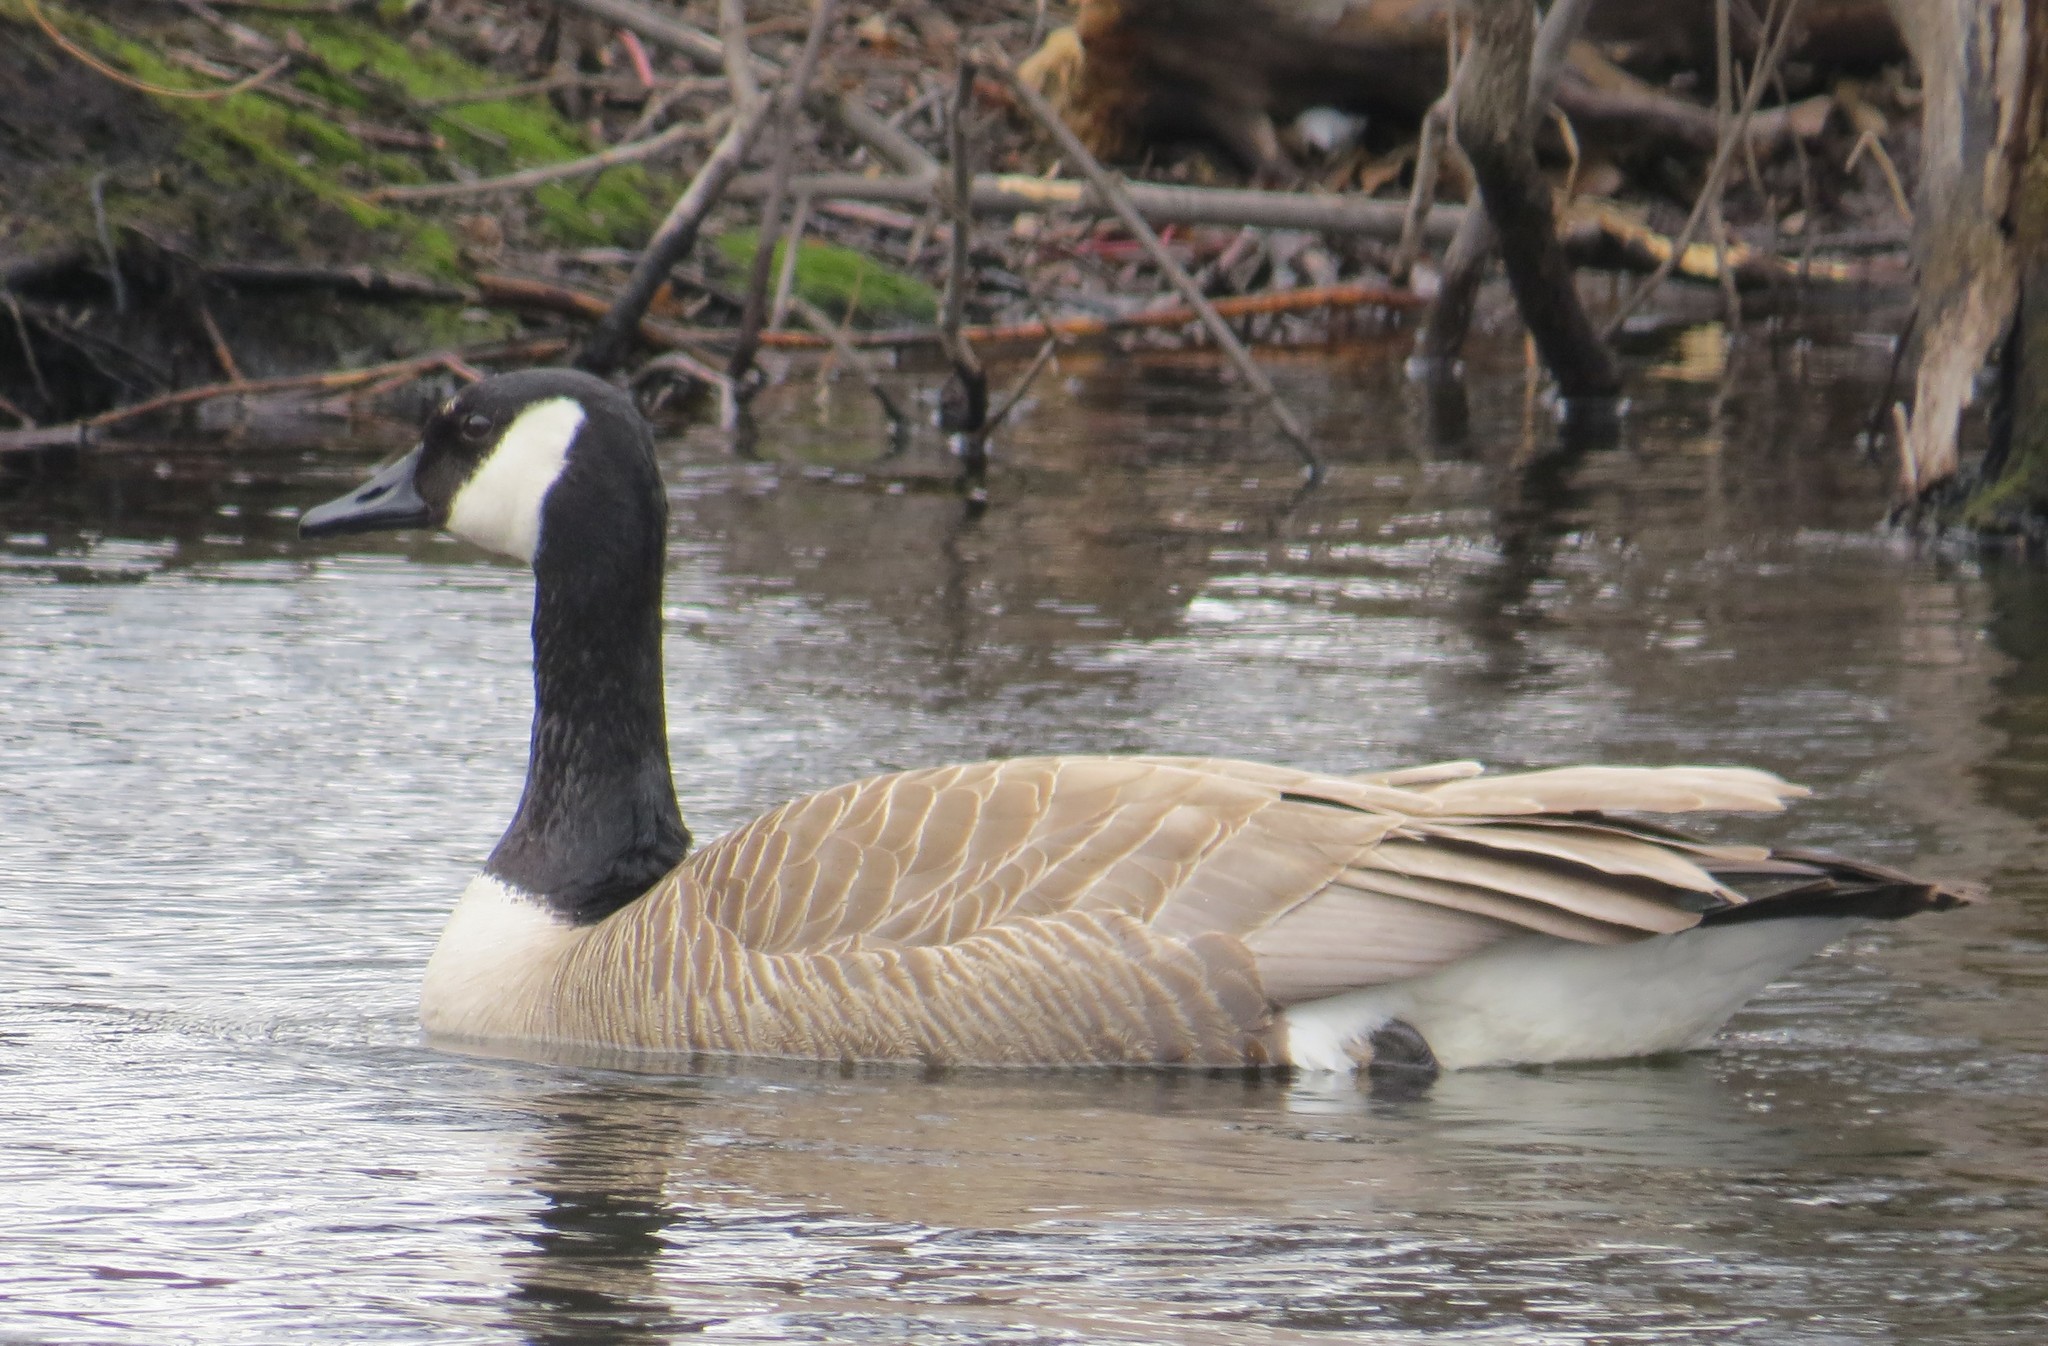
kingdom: Animalia
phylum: Chordata
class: Aves
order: Anseriformes
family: Anatidae
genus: Branta
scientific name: Branta canadensis
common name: Canada goose
